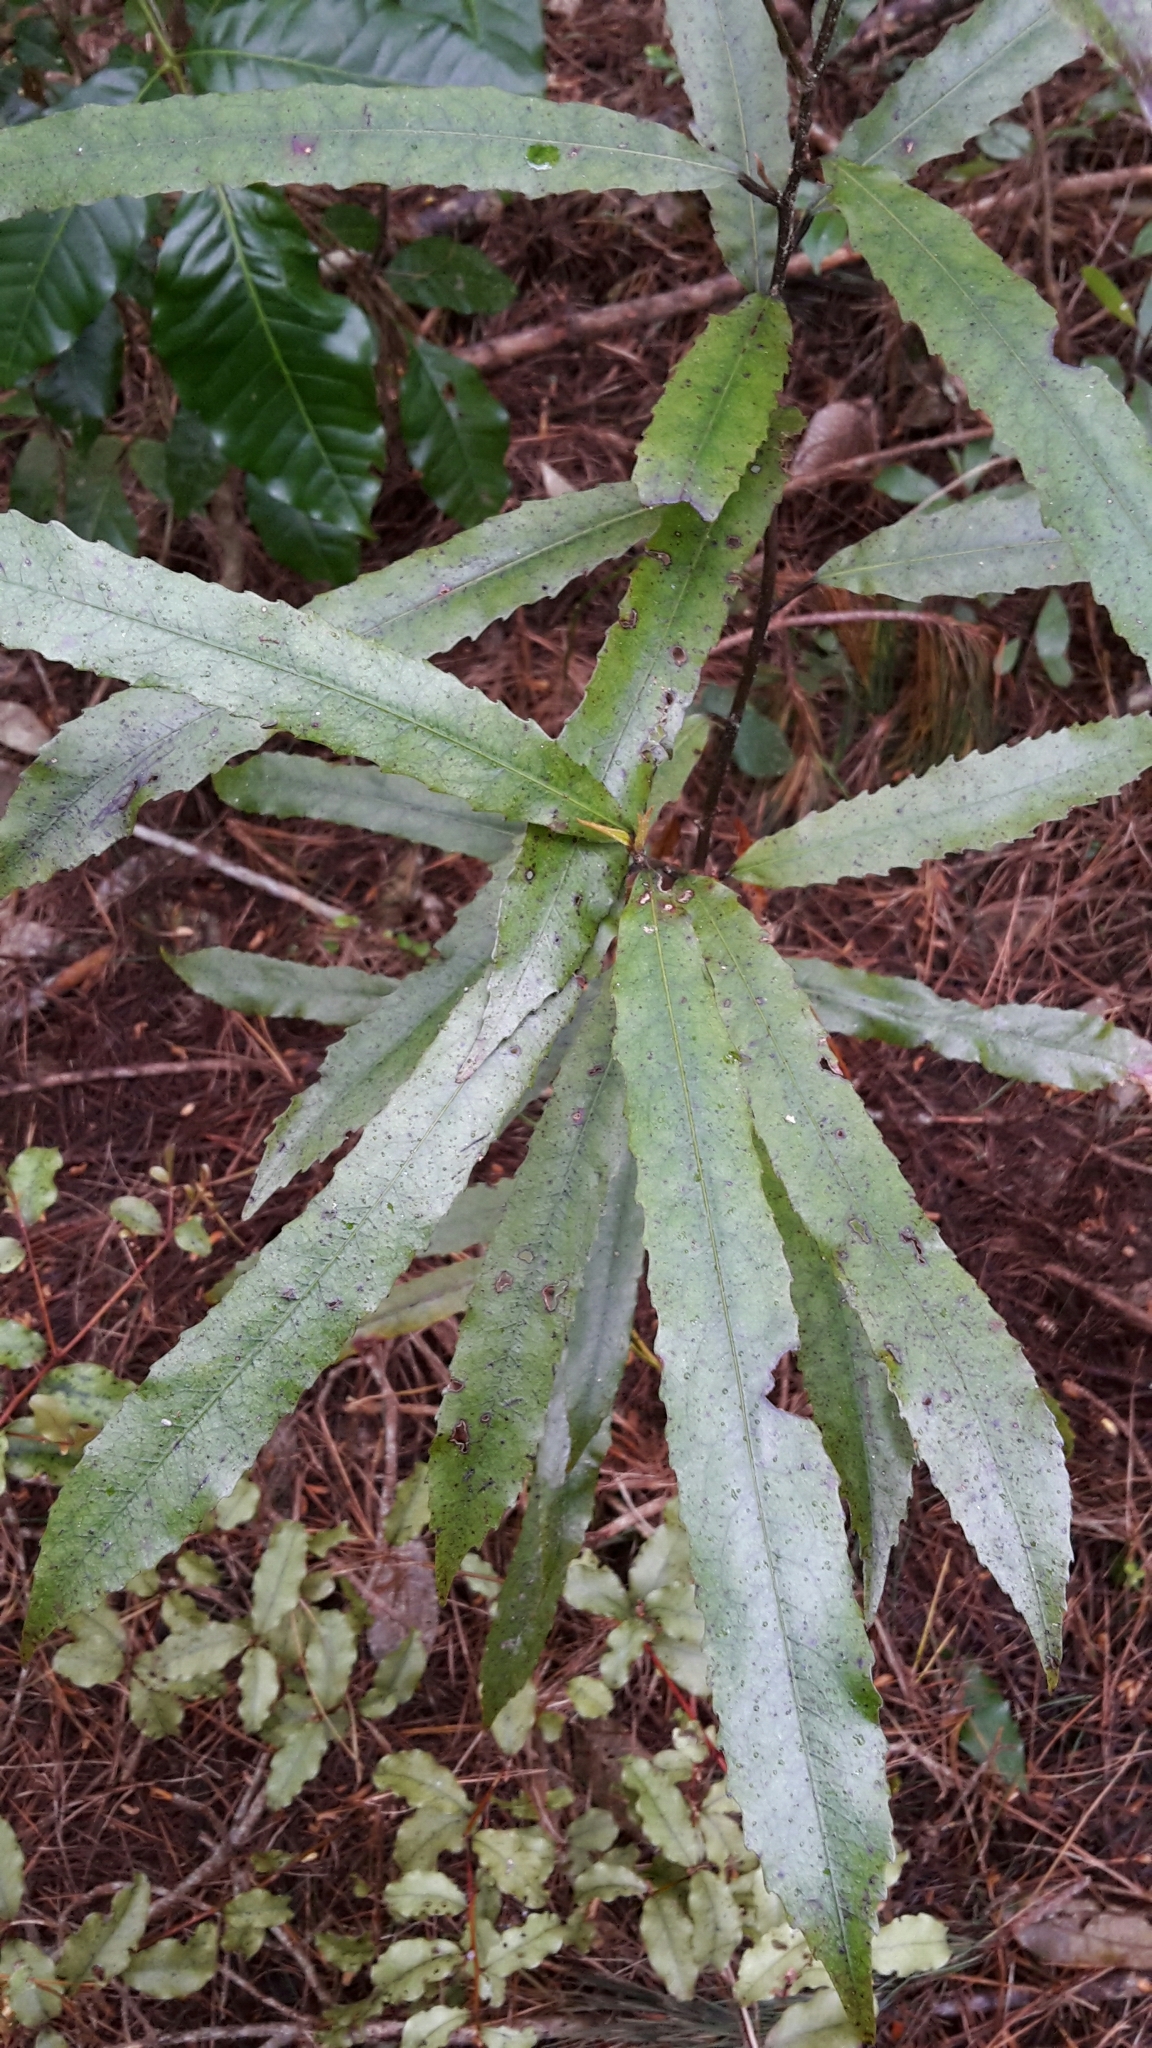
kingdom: Plantae
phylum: Tracheophyta
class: Magnoliopsida
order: Oxalidales
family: Elaeocarpaceae
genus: Elaeocarpus
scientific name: Elaeocarpus dentatus
